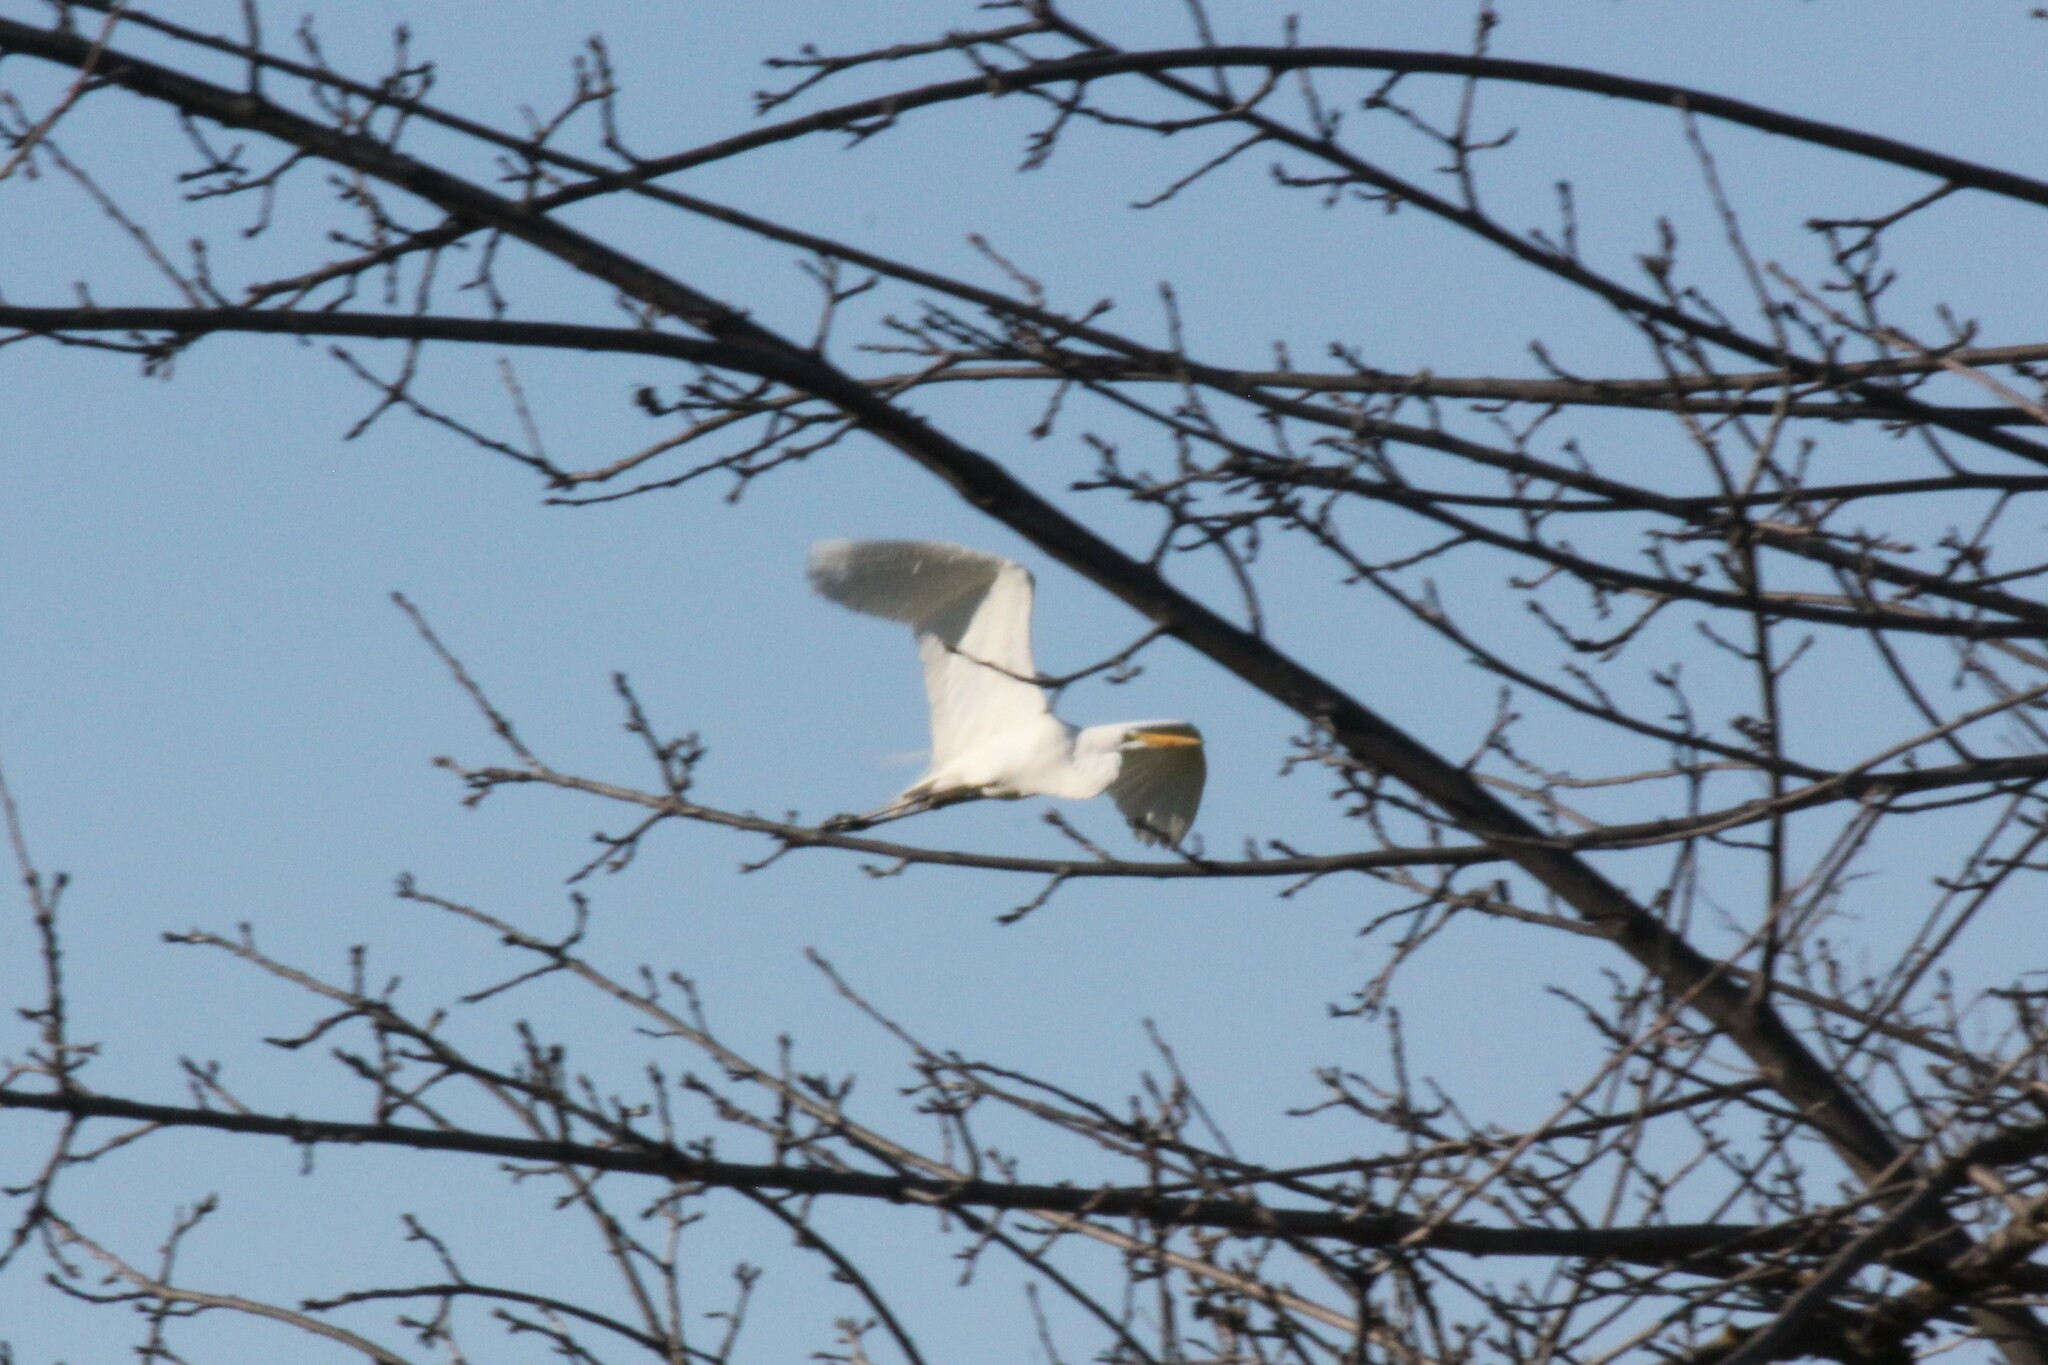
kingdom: Animalia
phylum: Chordata
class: Aves
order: Pelecaniformes
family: Ardeidae
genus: Ardea
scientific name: Ardea alba
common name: Great egret
